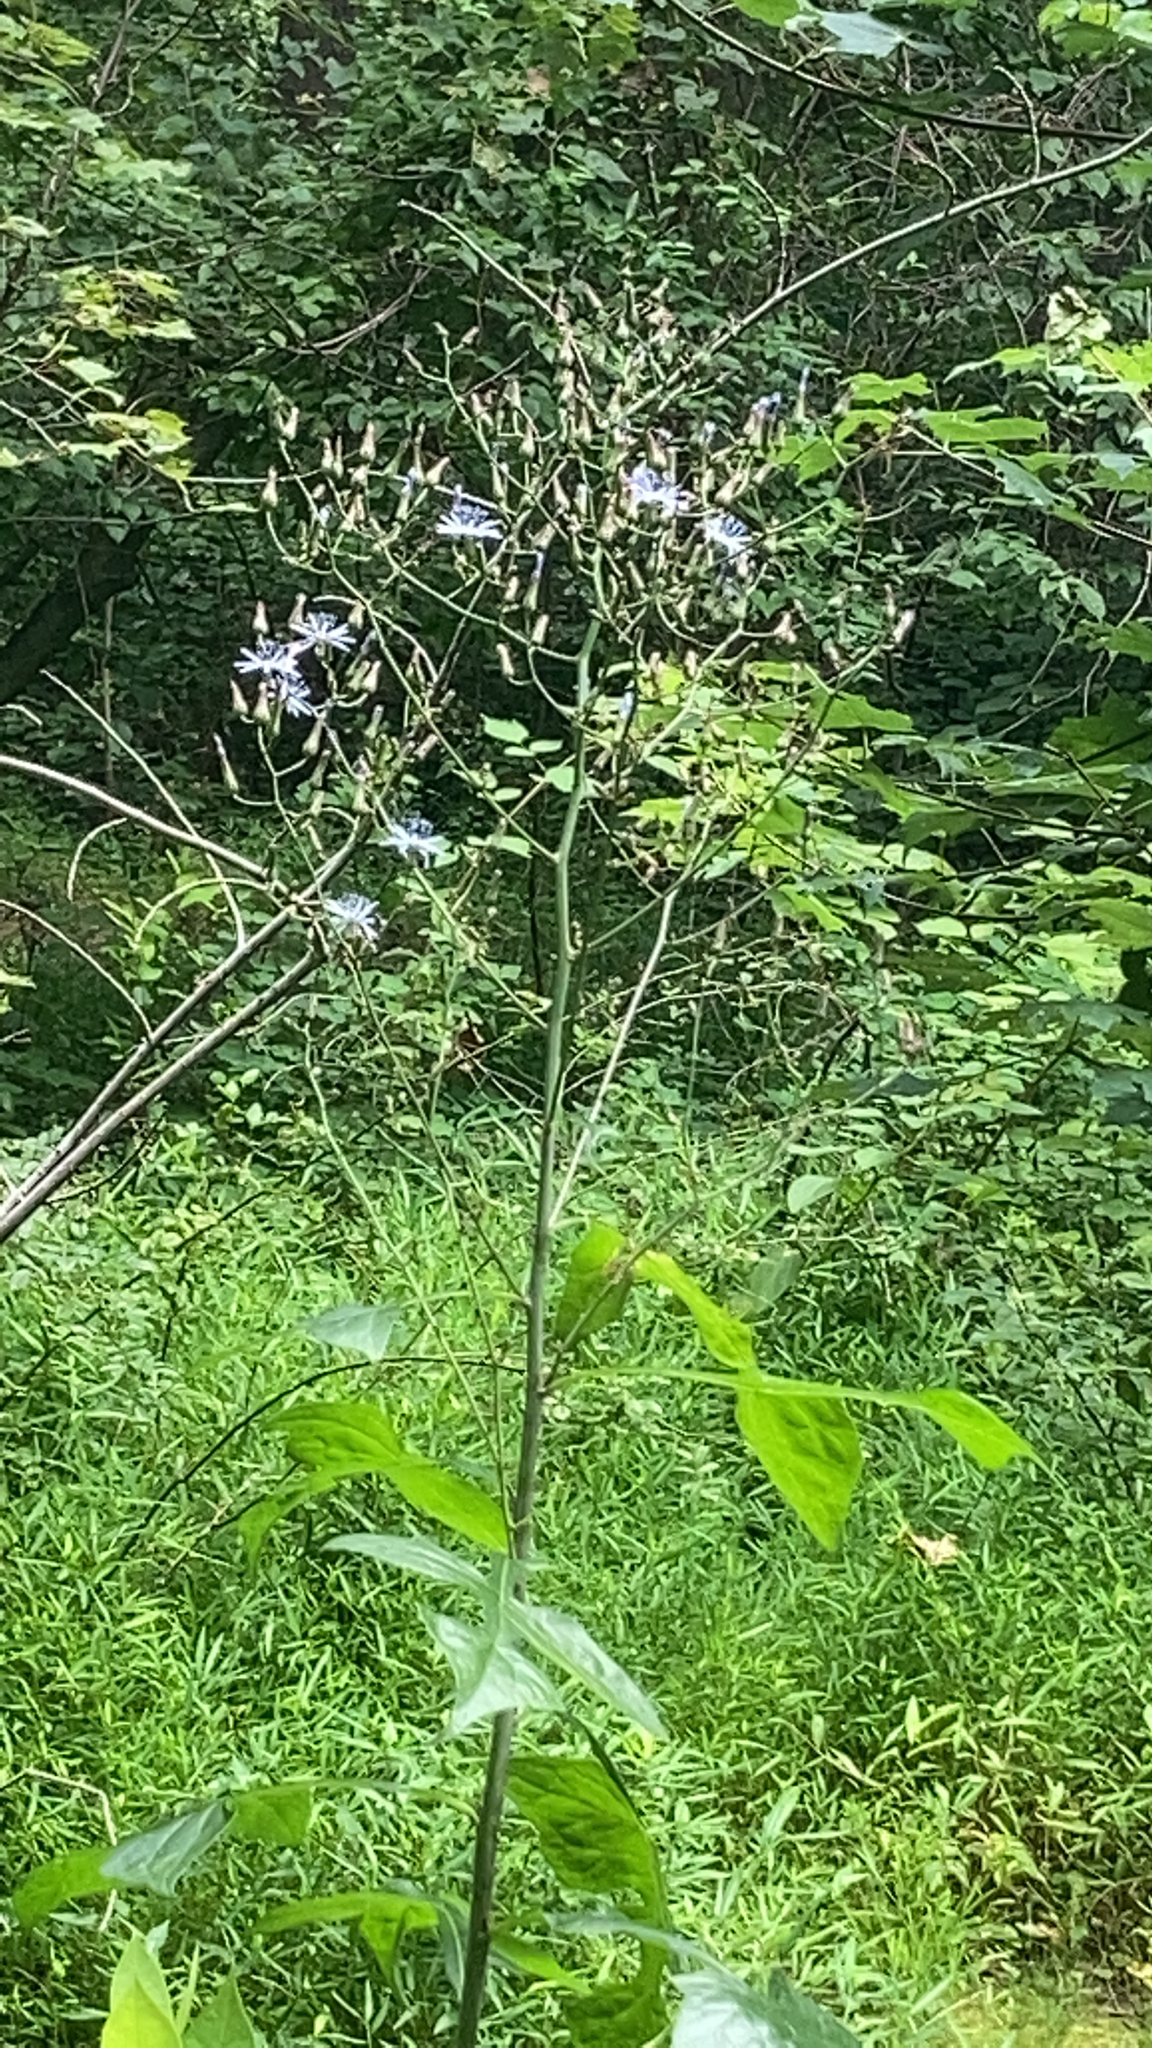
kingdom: Plantae
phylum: Tracheophyta
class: Magnoliopsida
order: Asterales
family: Asteraceae
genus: Lactuca
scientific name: Lactuca floridana
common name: Woodland lettuce
